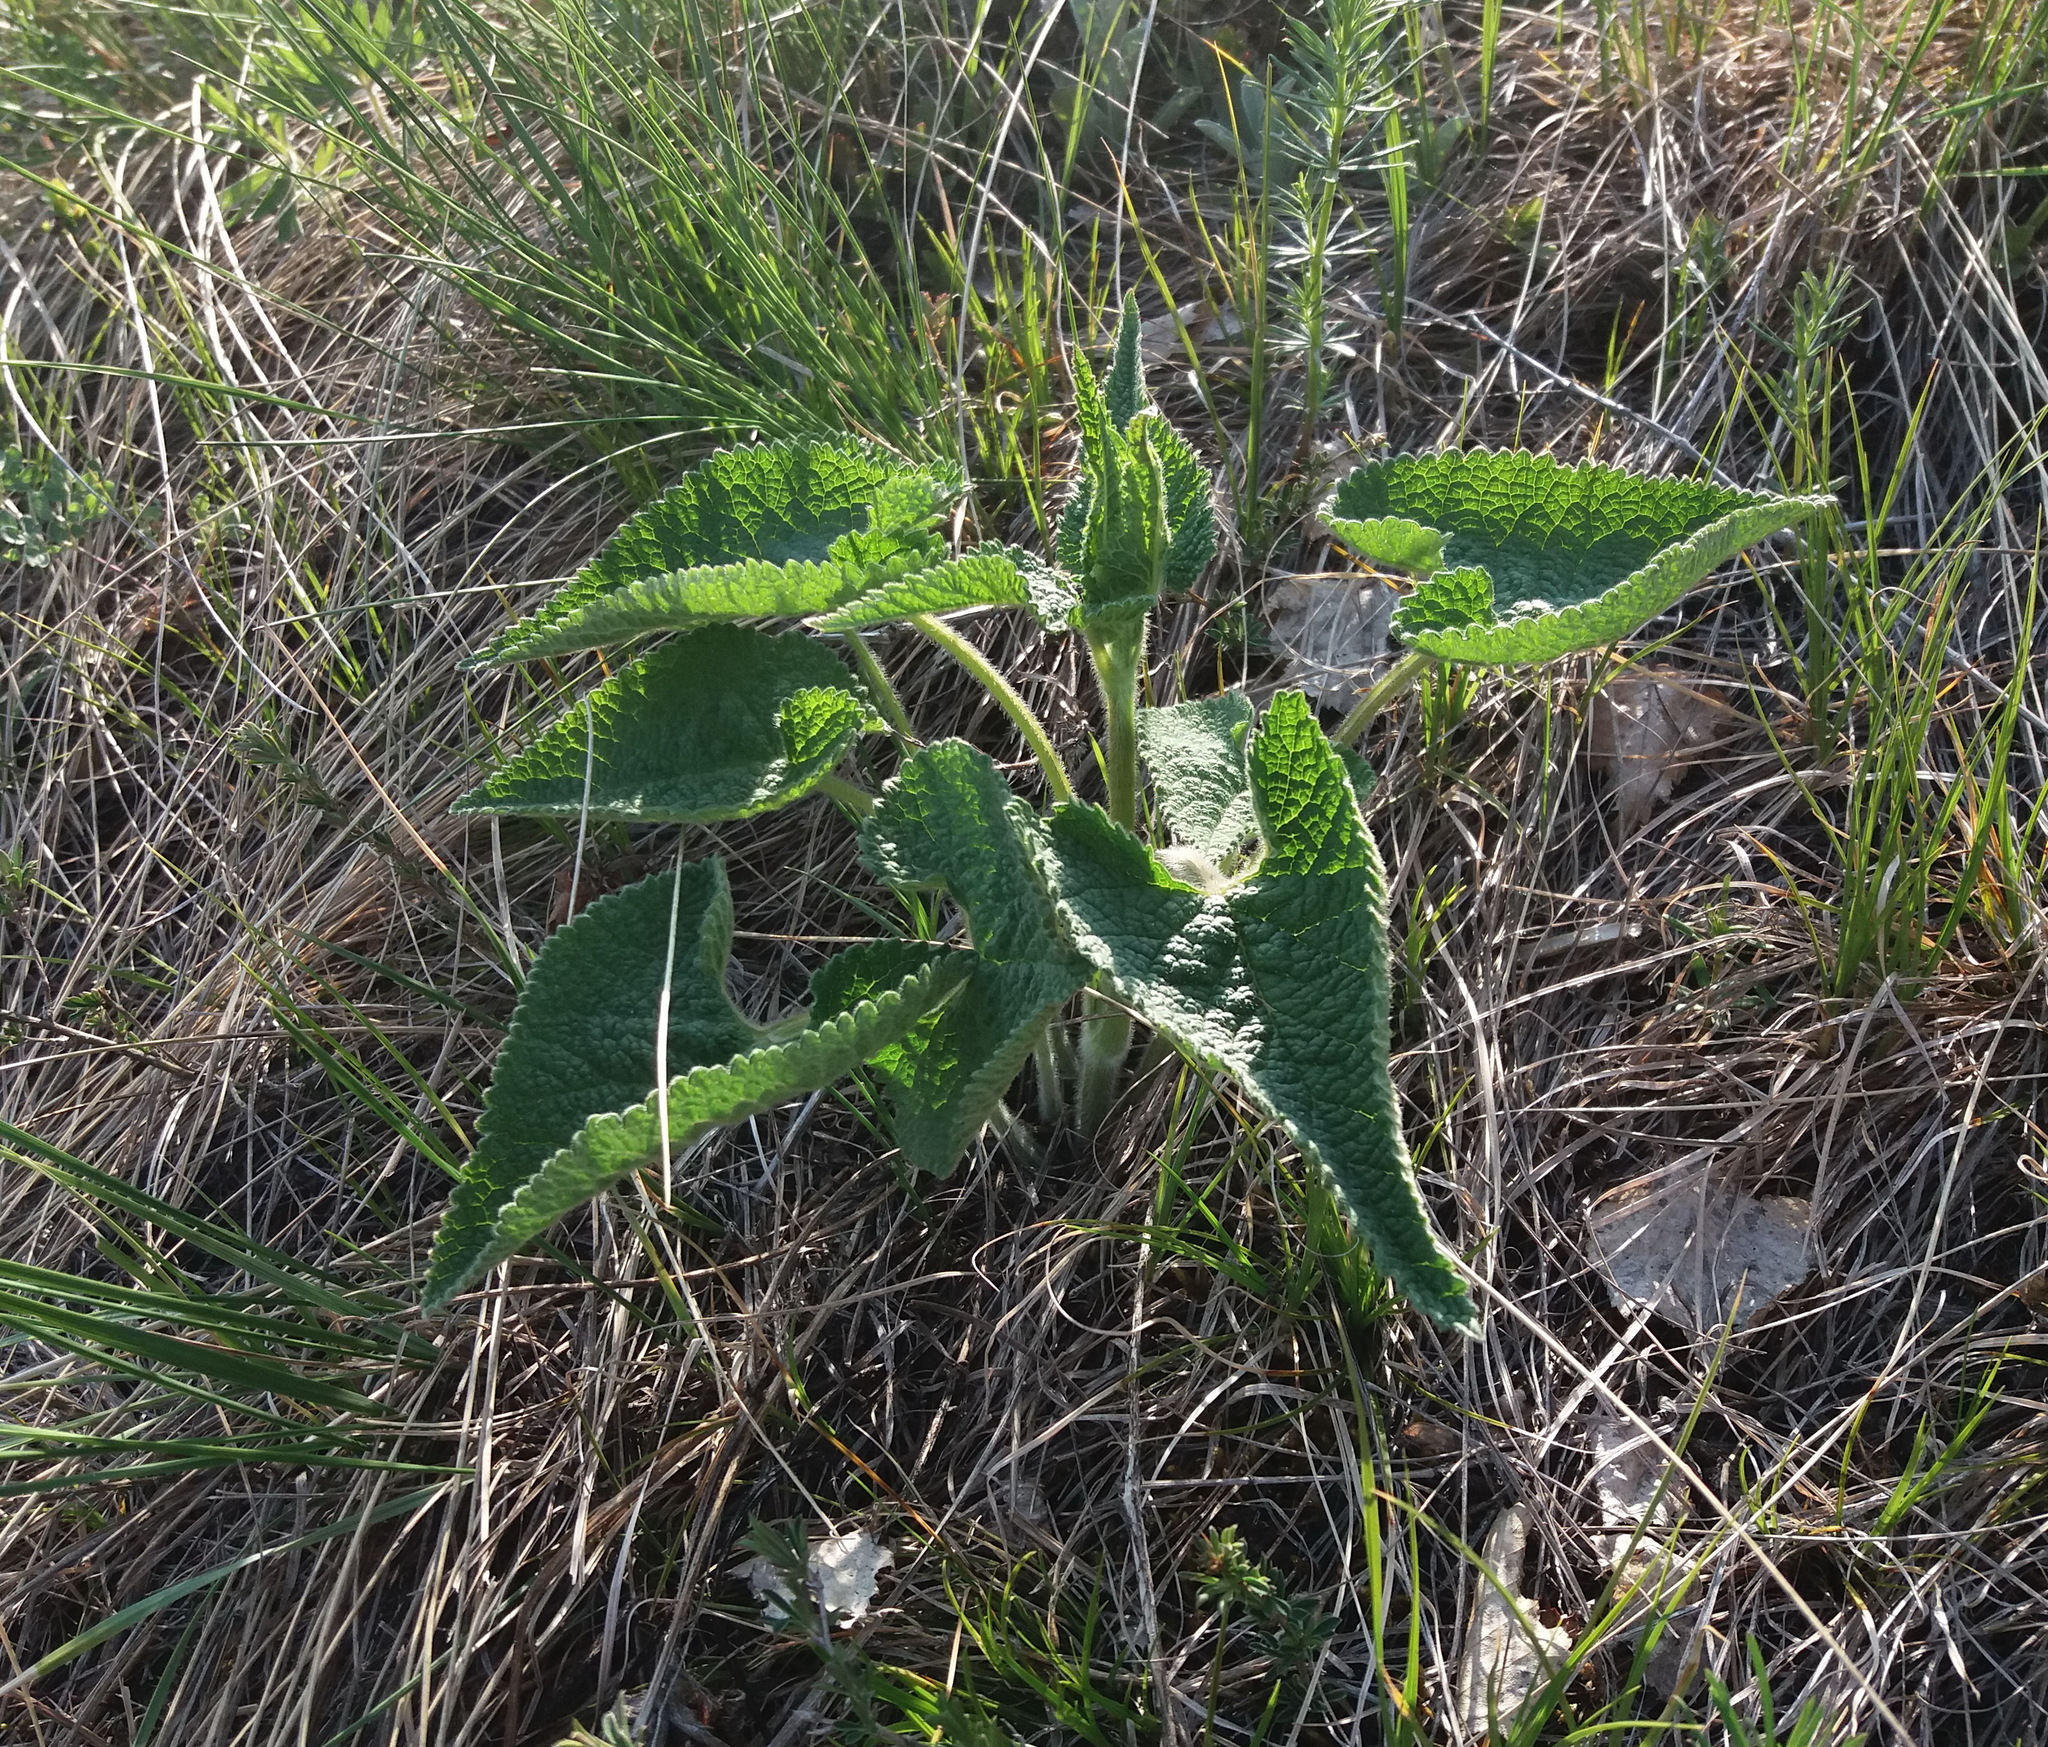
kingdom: Plantae
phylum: Tracheophyta
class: Magnoliopsida
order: Lamiales
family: Lamiaceae
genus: Phlomoides
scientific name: Phlomoides tuberosa
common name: Tuberous jerusalem sage
